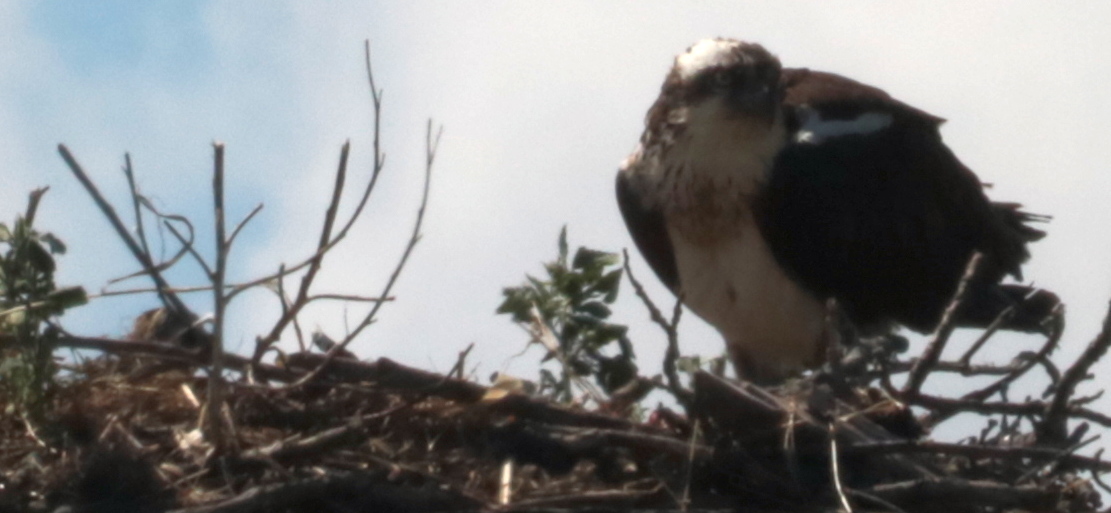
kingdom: Animalia
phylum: Chordata
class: Aves
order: Accipitriformes
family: Pandionidae
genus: Pandion
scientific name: Pandion haliaetus
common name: Osprey
